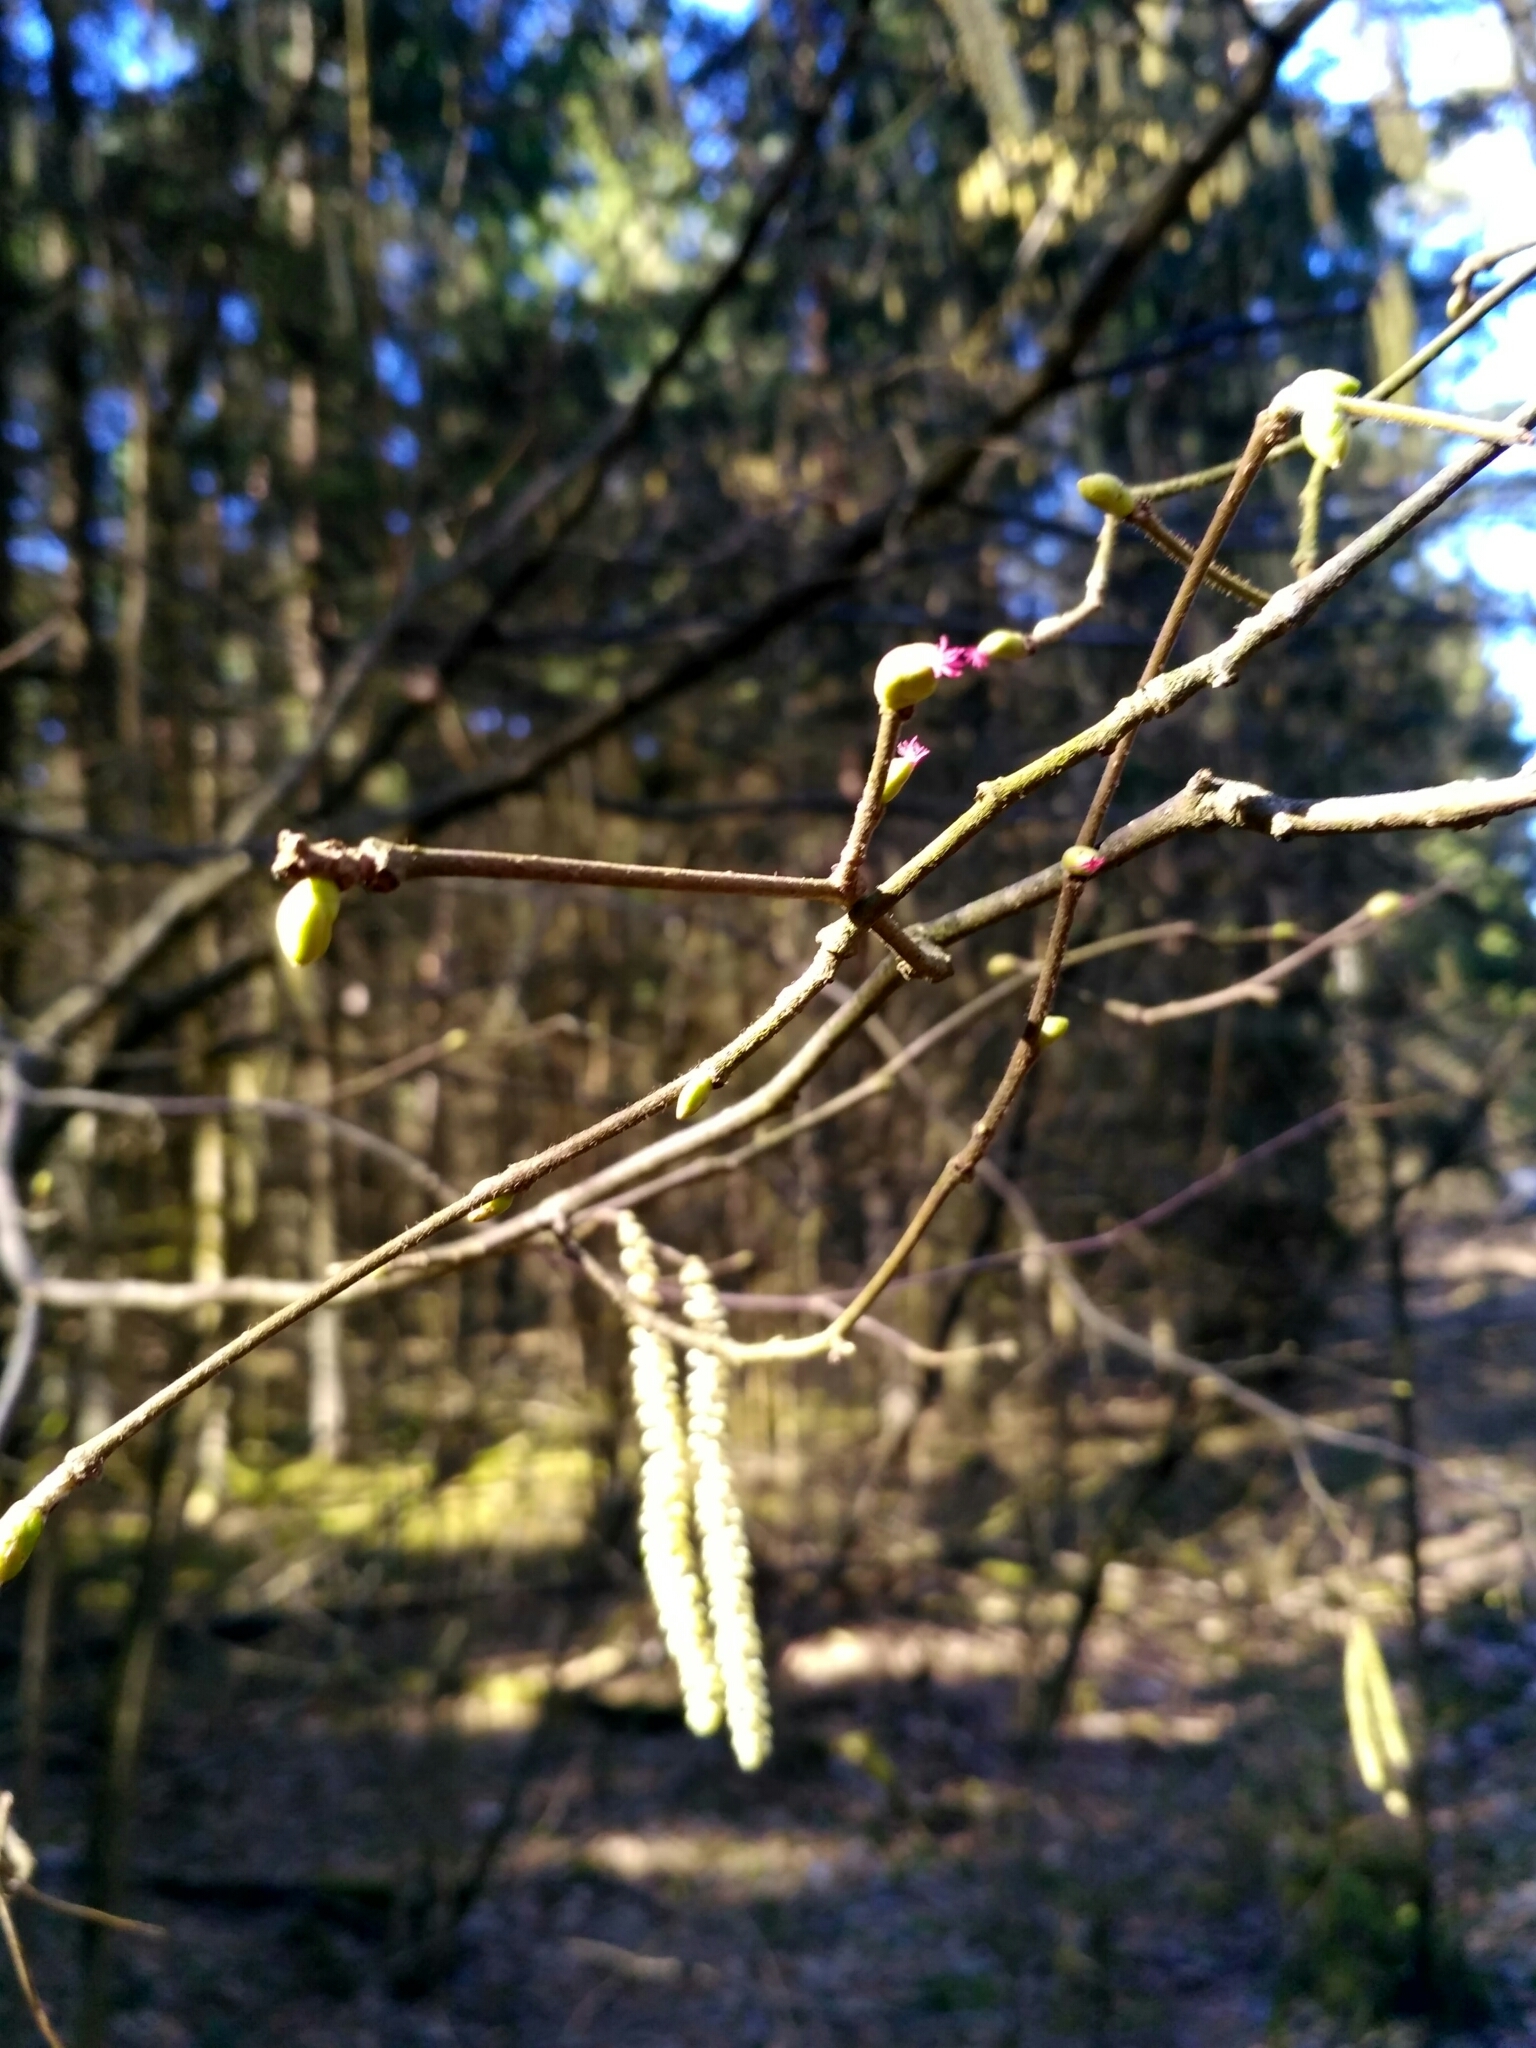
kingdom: Plantae
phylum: Tracheophyta
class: Magnoliopsida
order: Fagales
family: Betulaceae
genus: Corylus
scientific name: Corylus avellana
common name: European hazel
